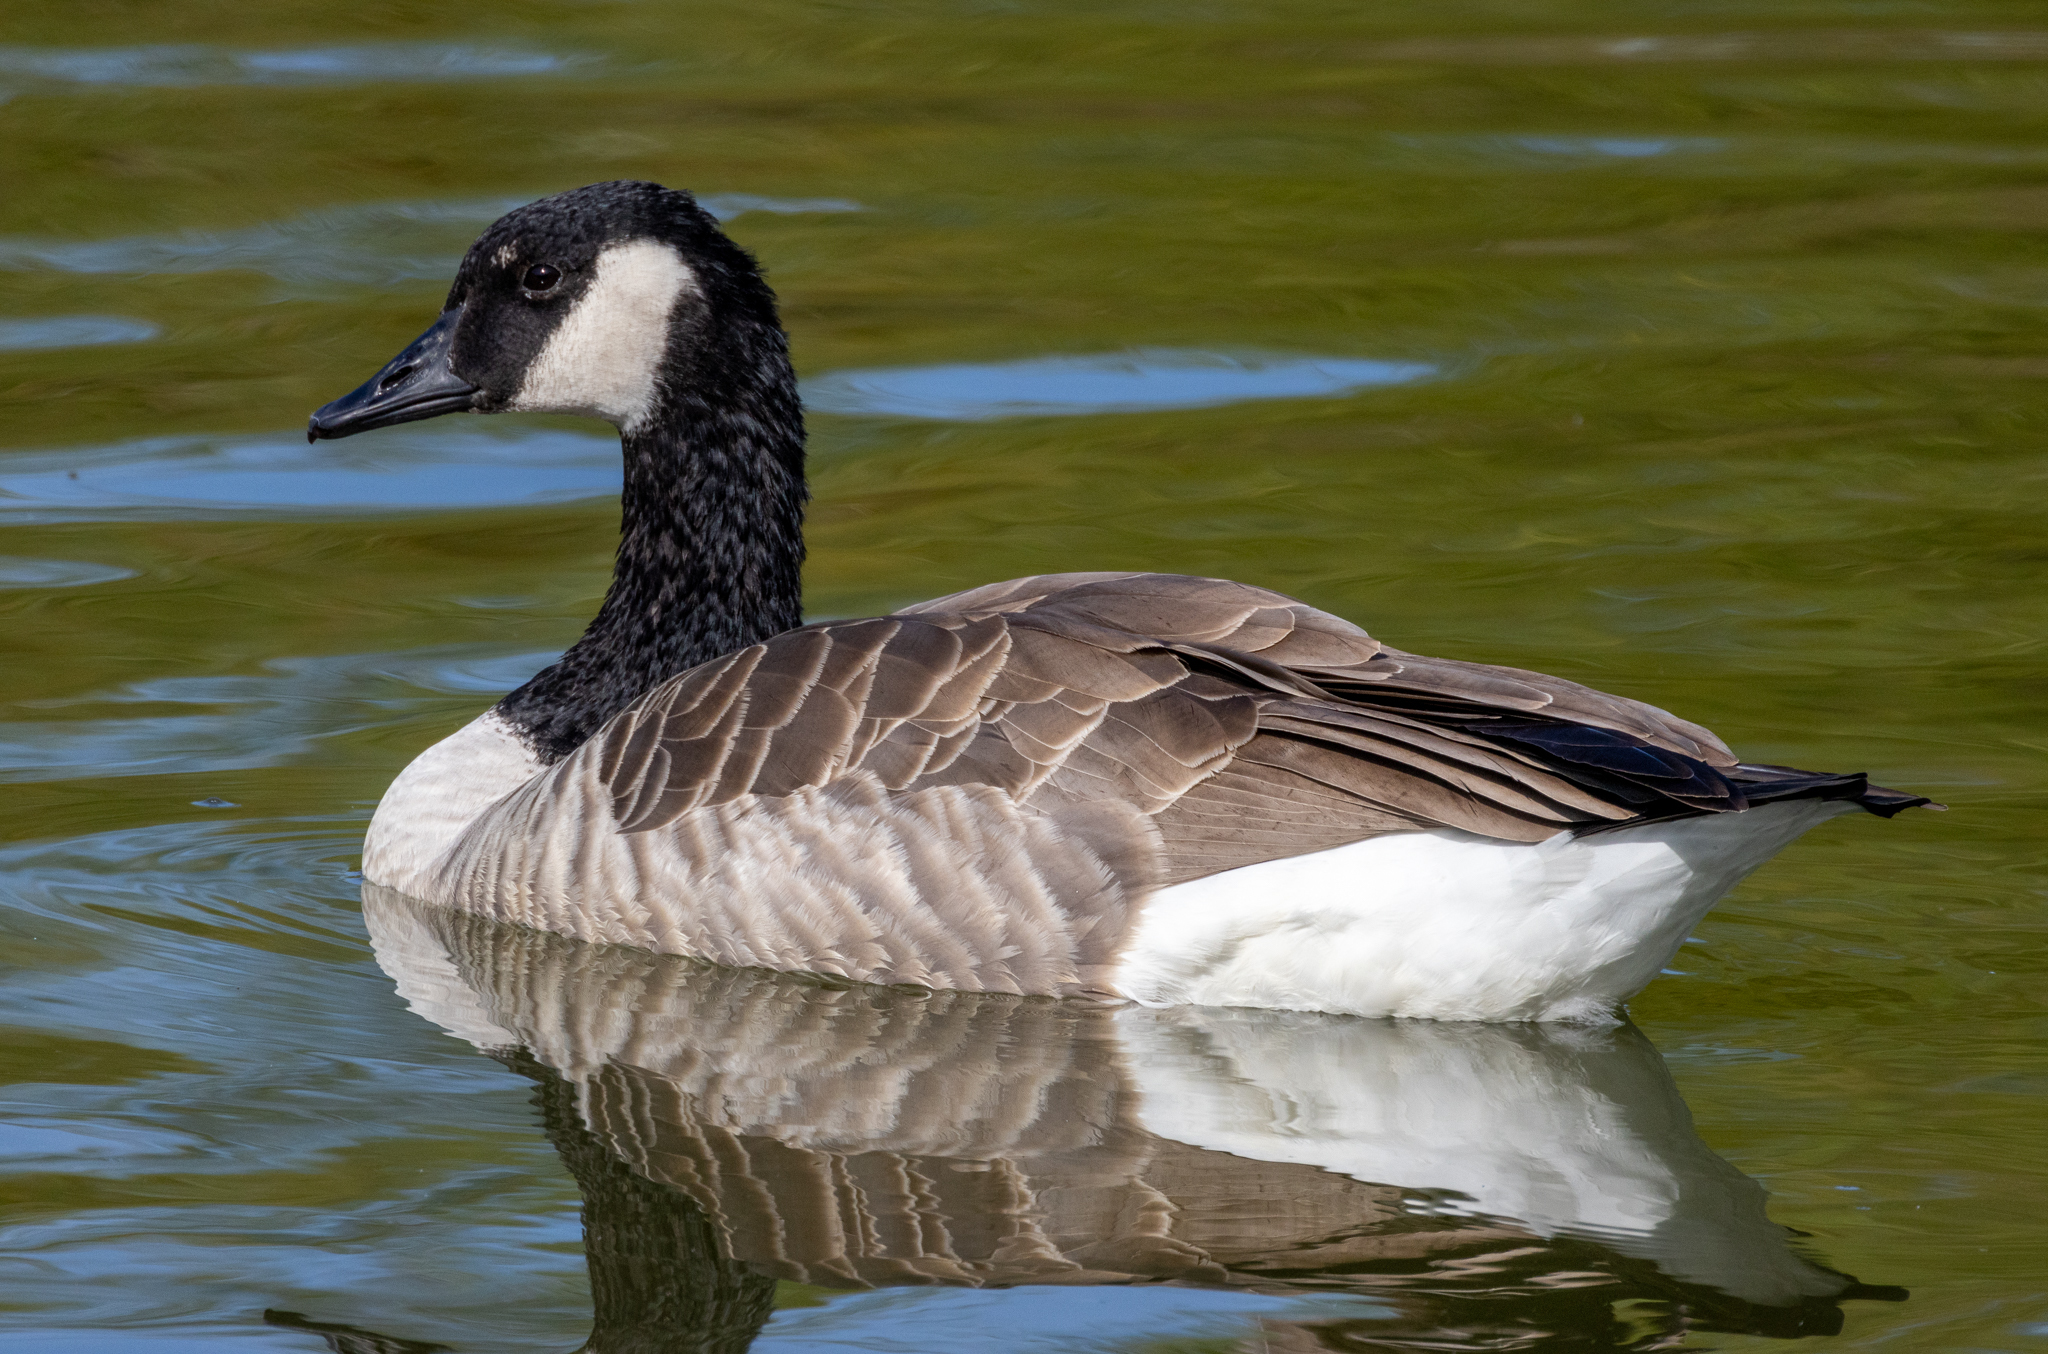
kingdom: Animalia
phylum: Chordata
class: Aves
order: Anseriformes
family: Anatidae
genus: Branta
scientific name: Branta canadensis
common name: Canada goose
